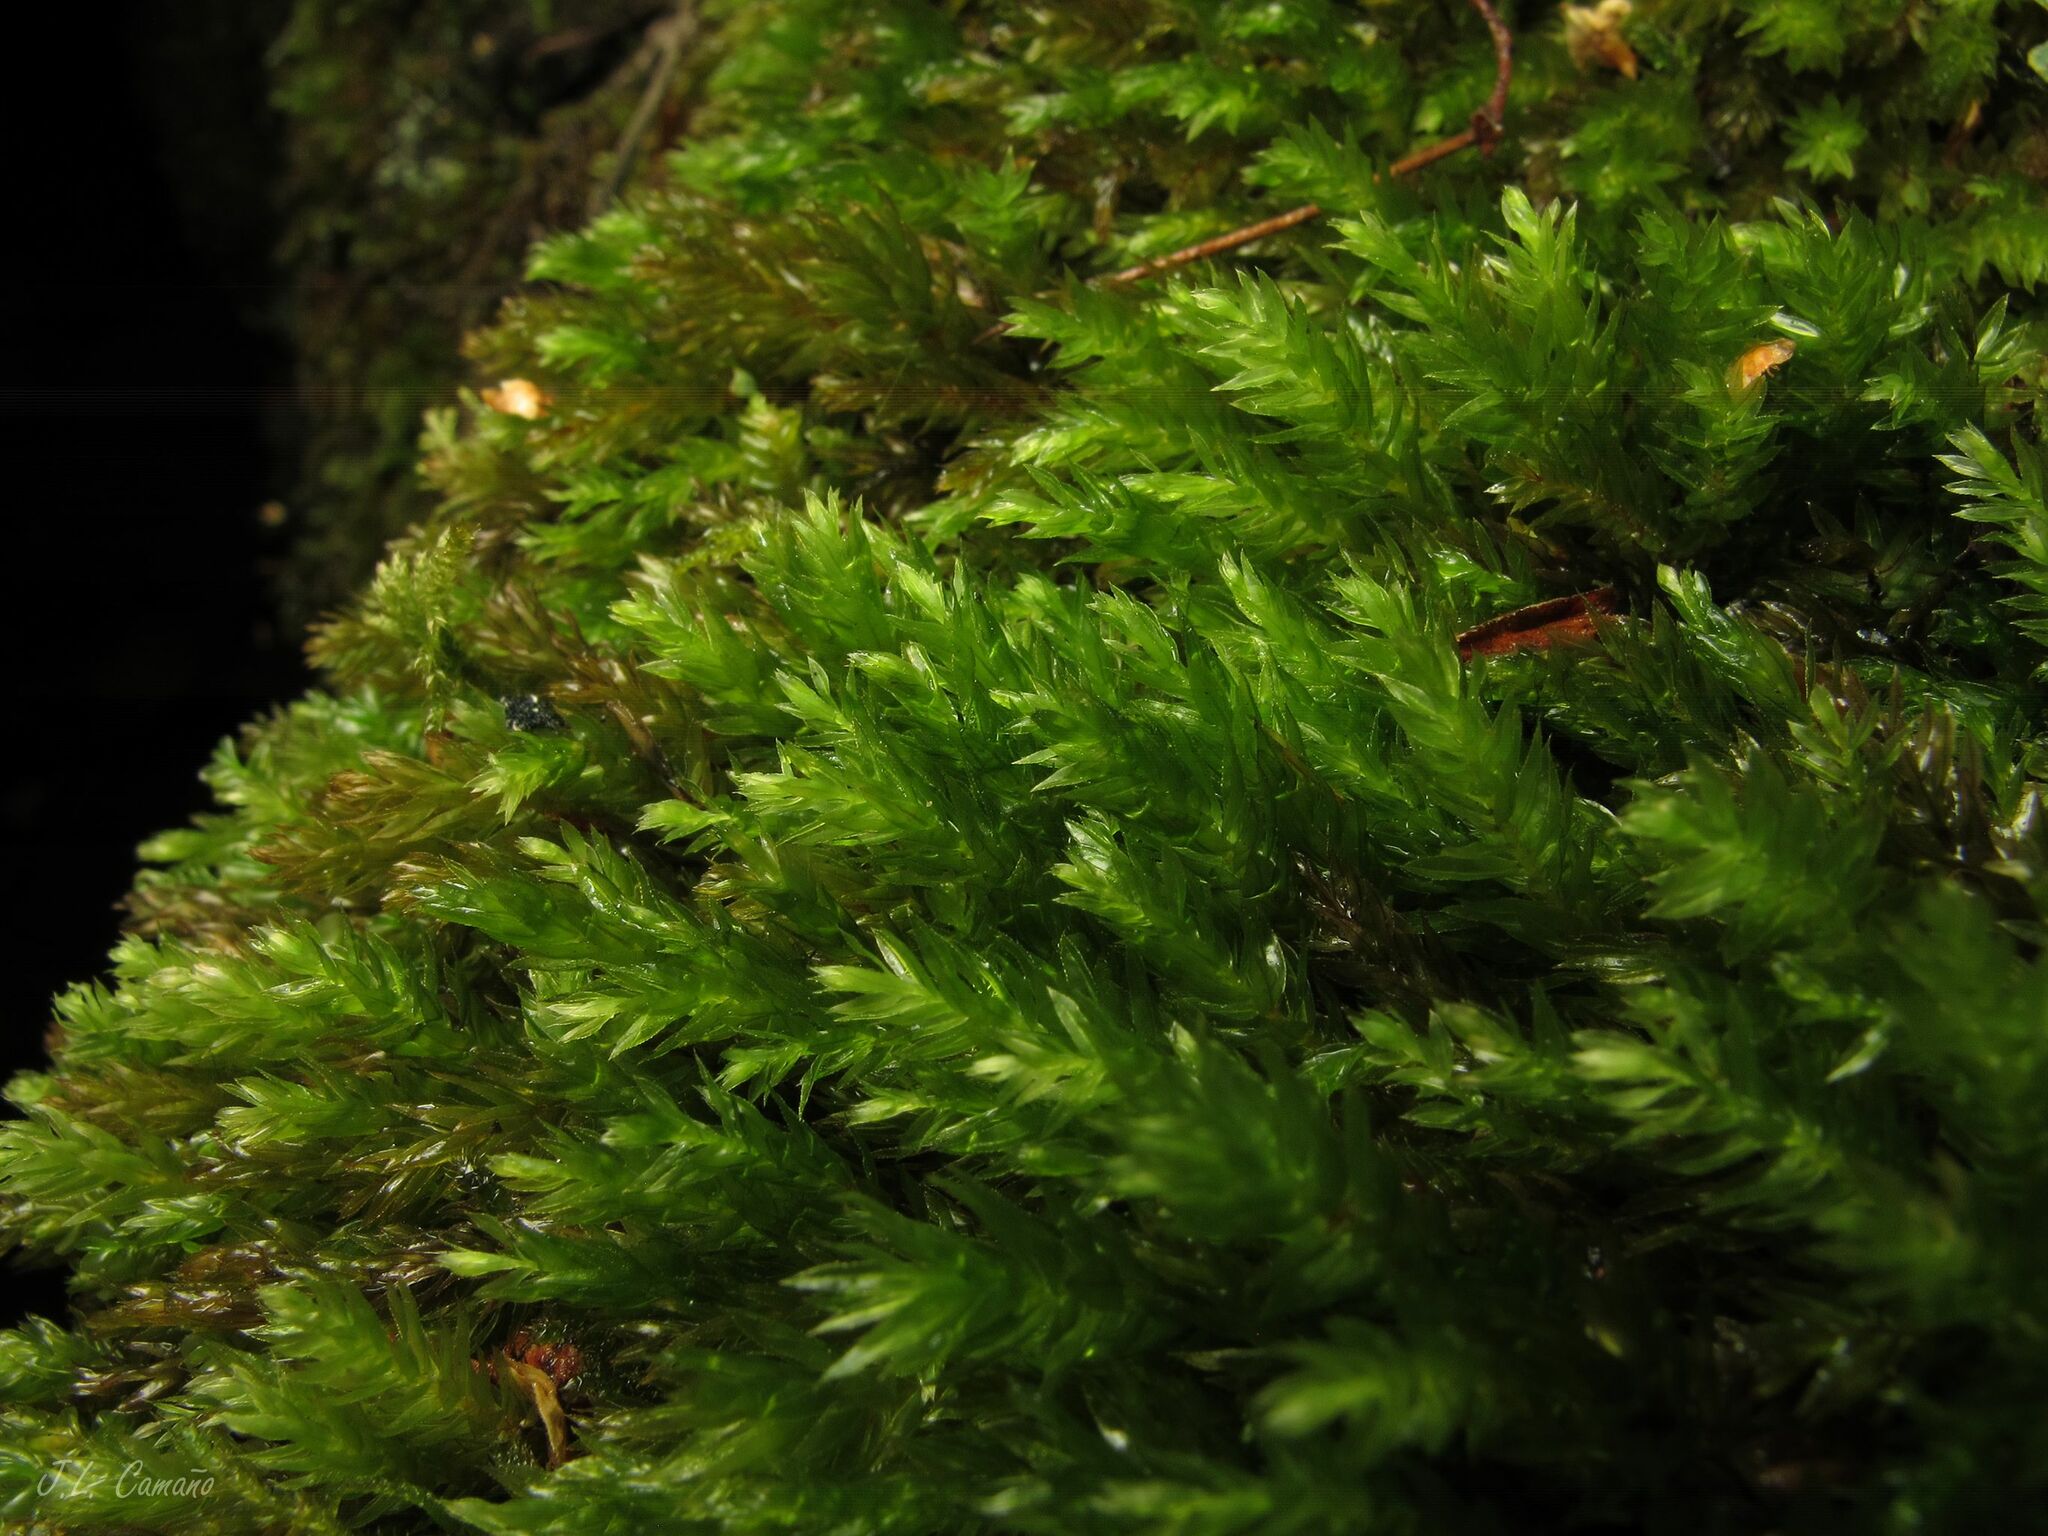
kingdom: Plantae
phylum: Bryophyta
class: Bryopsida
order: Bryales
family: Mniaceae
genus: Mnium
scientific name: Mnium hornum
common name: Swan's-neck leafy moss
